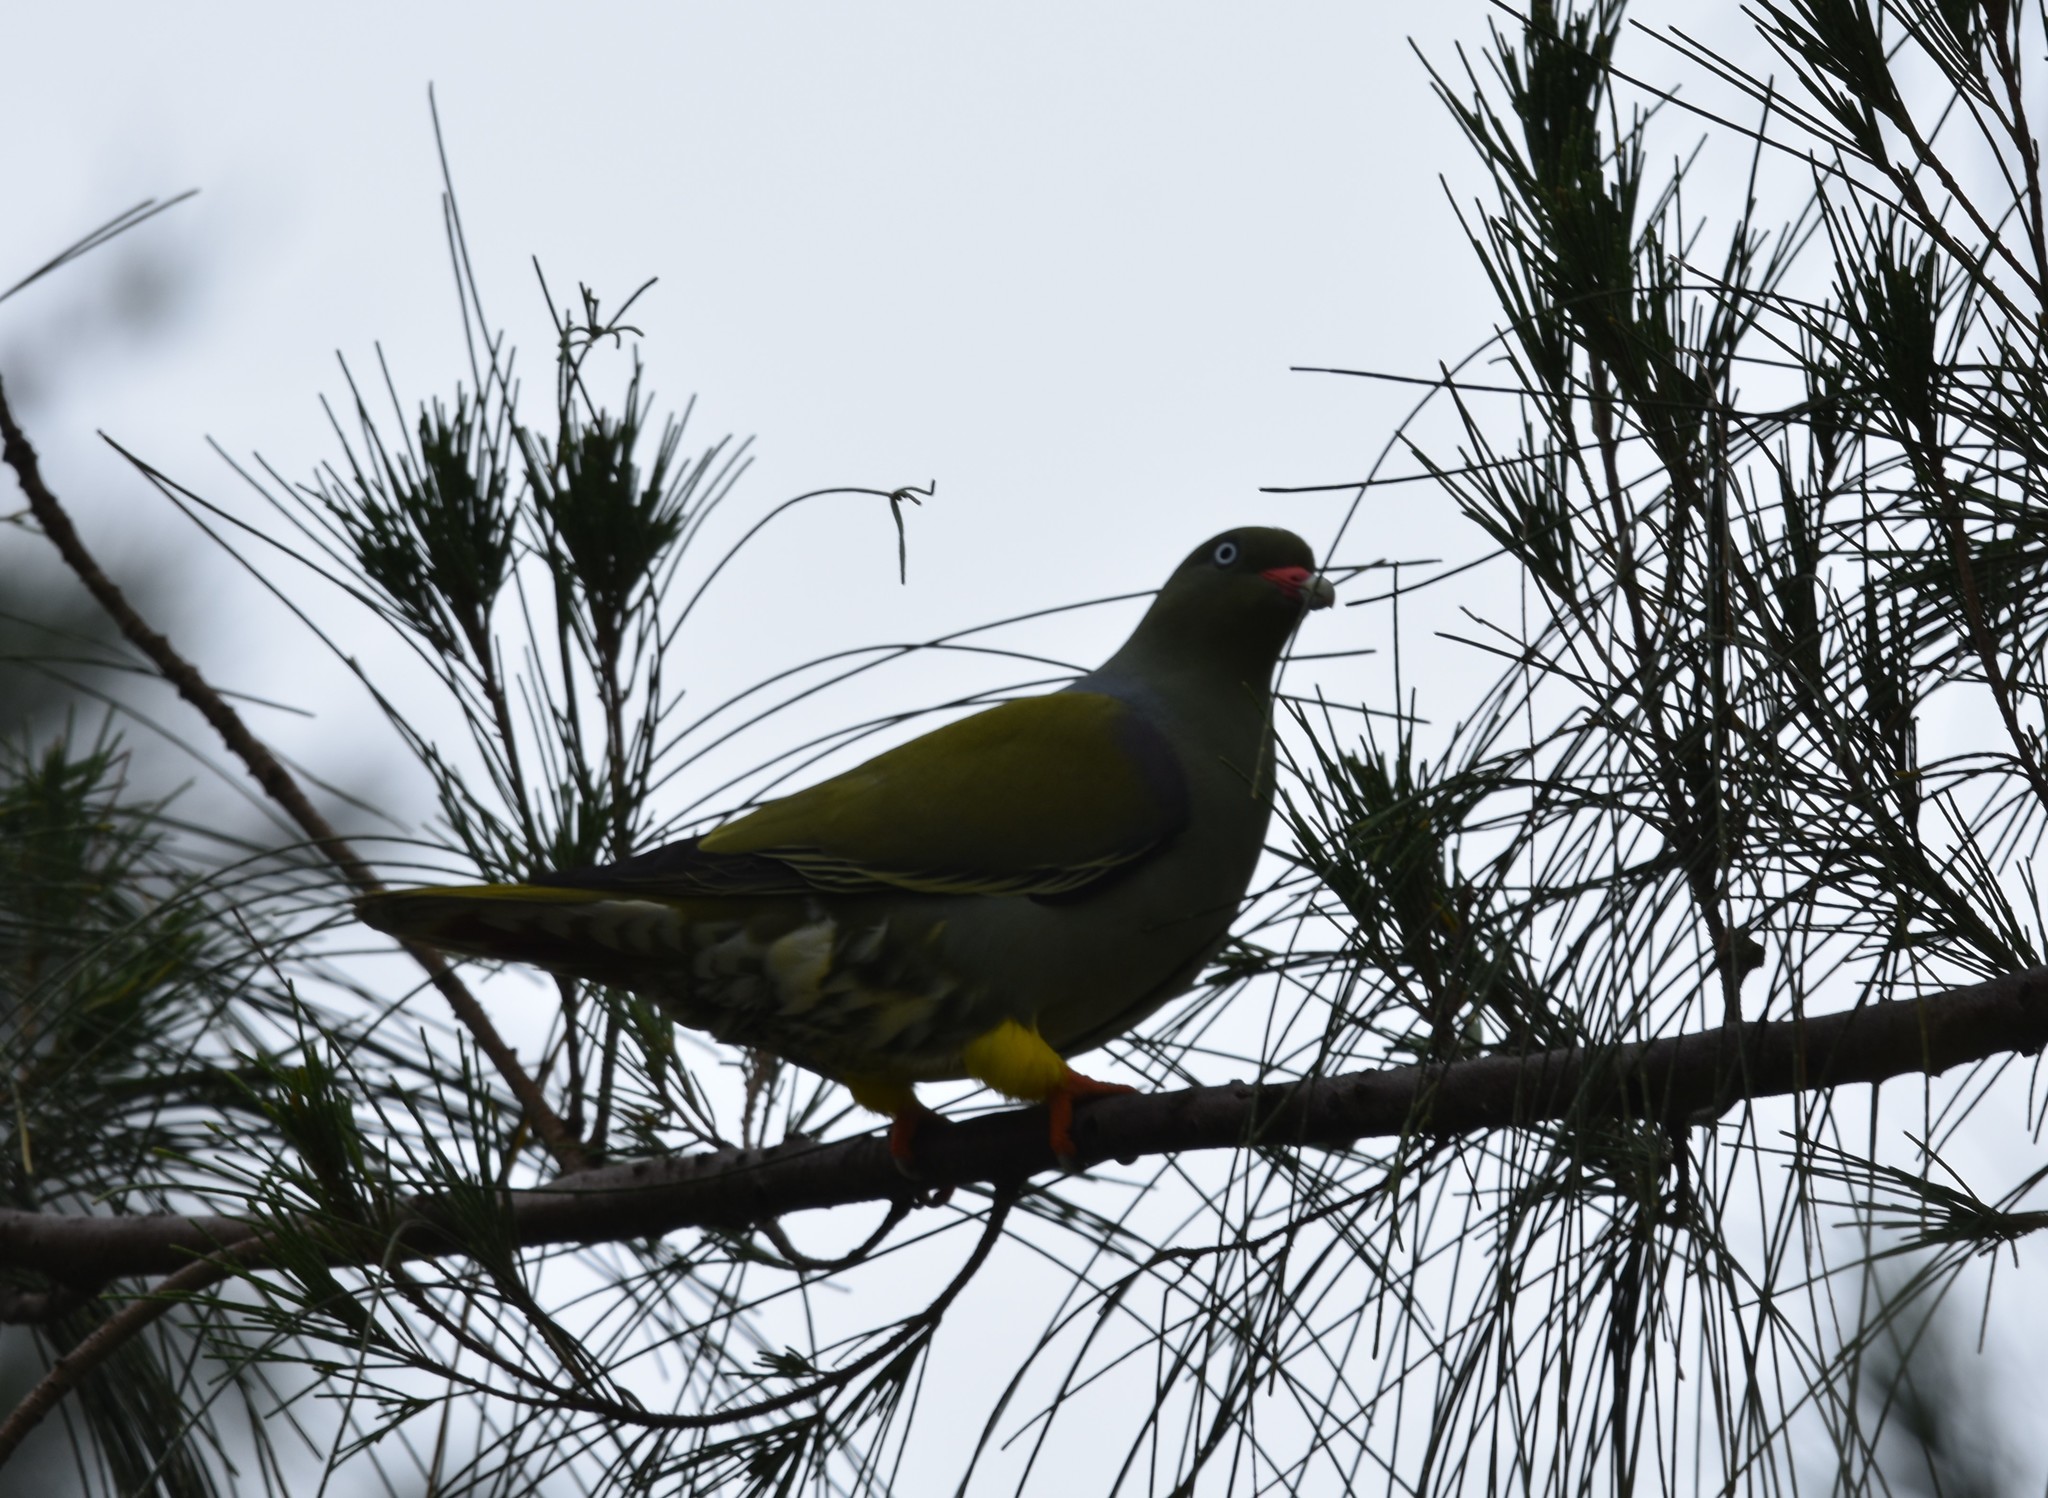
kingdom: Animalia
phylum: Chordata
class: Aves
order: Columbiformes
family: Columbidae
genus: Treron
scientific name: Treron calvus
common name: African green pigeon
